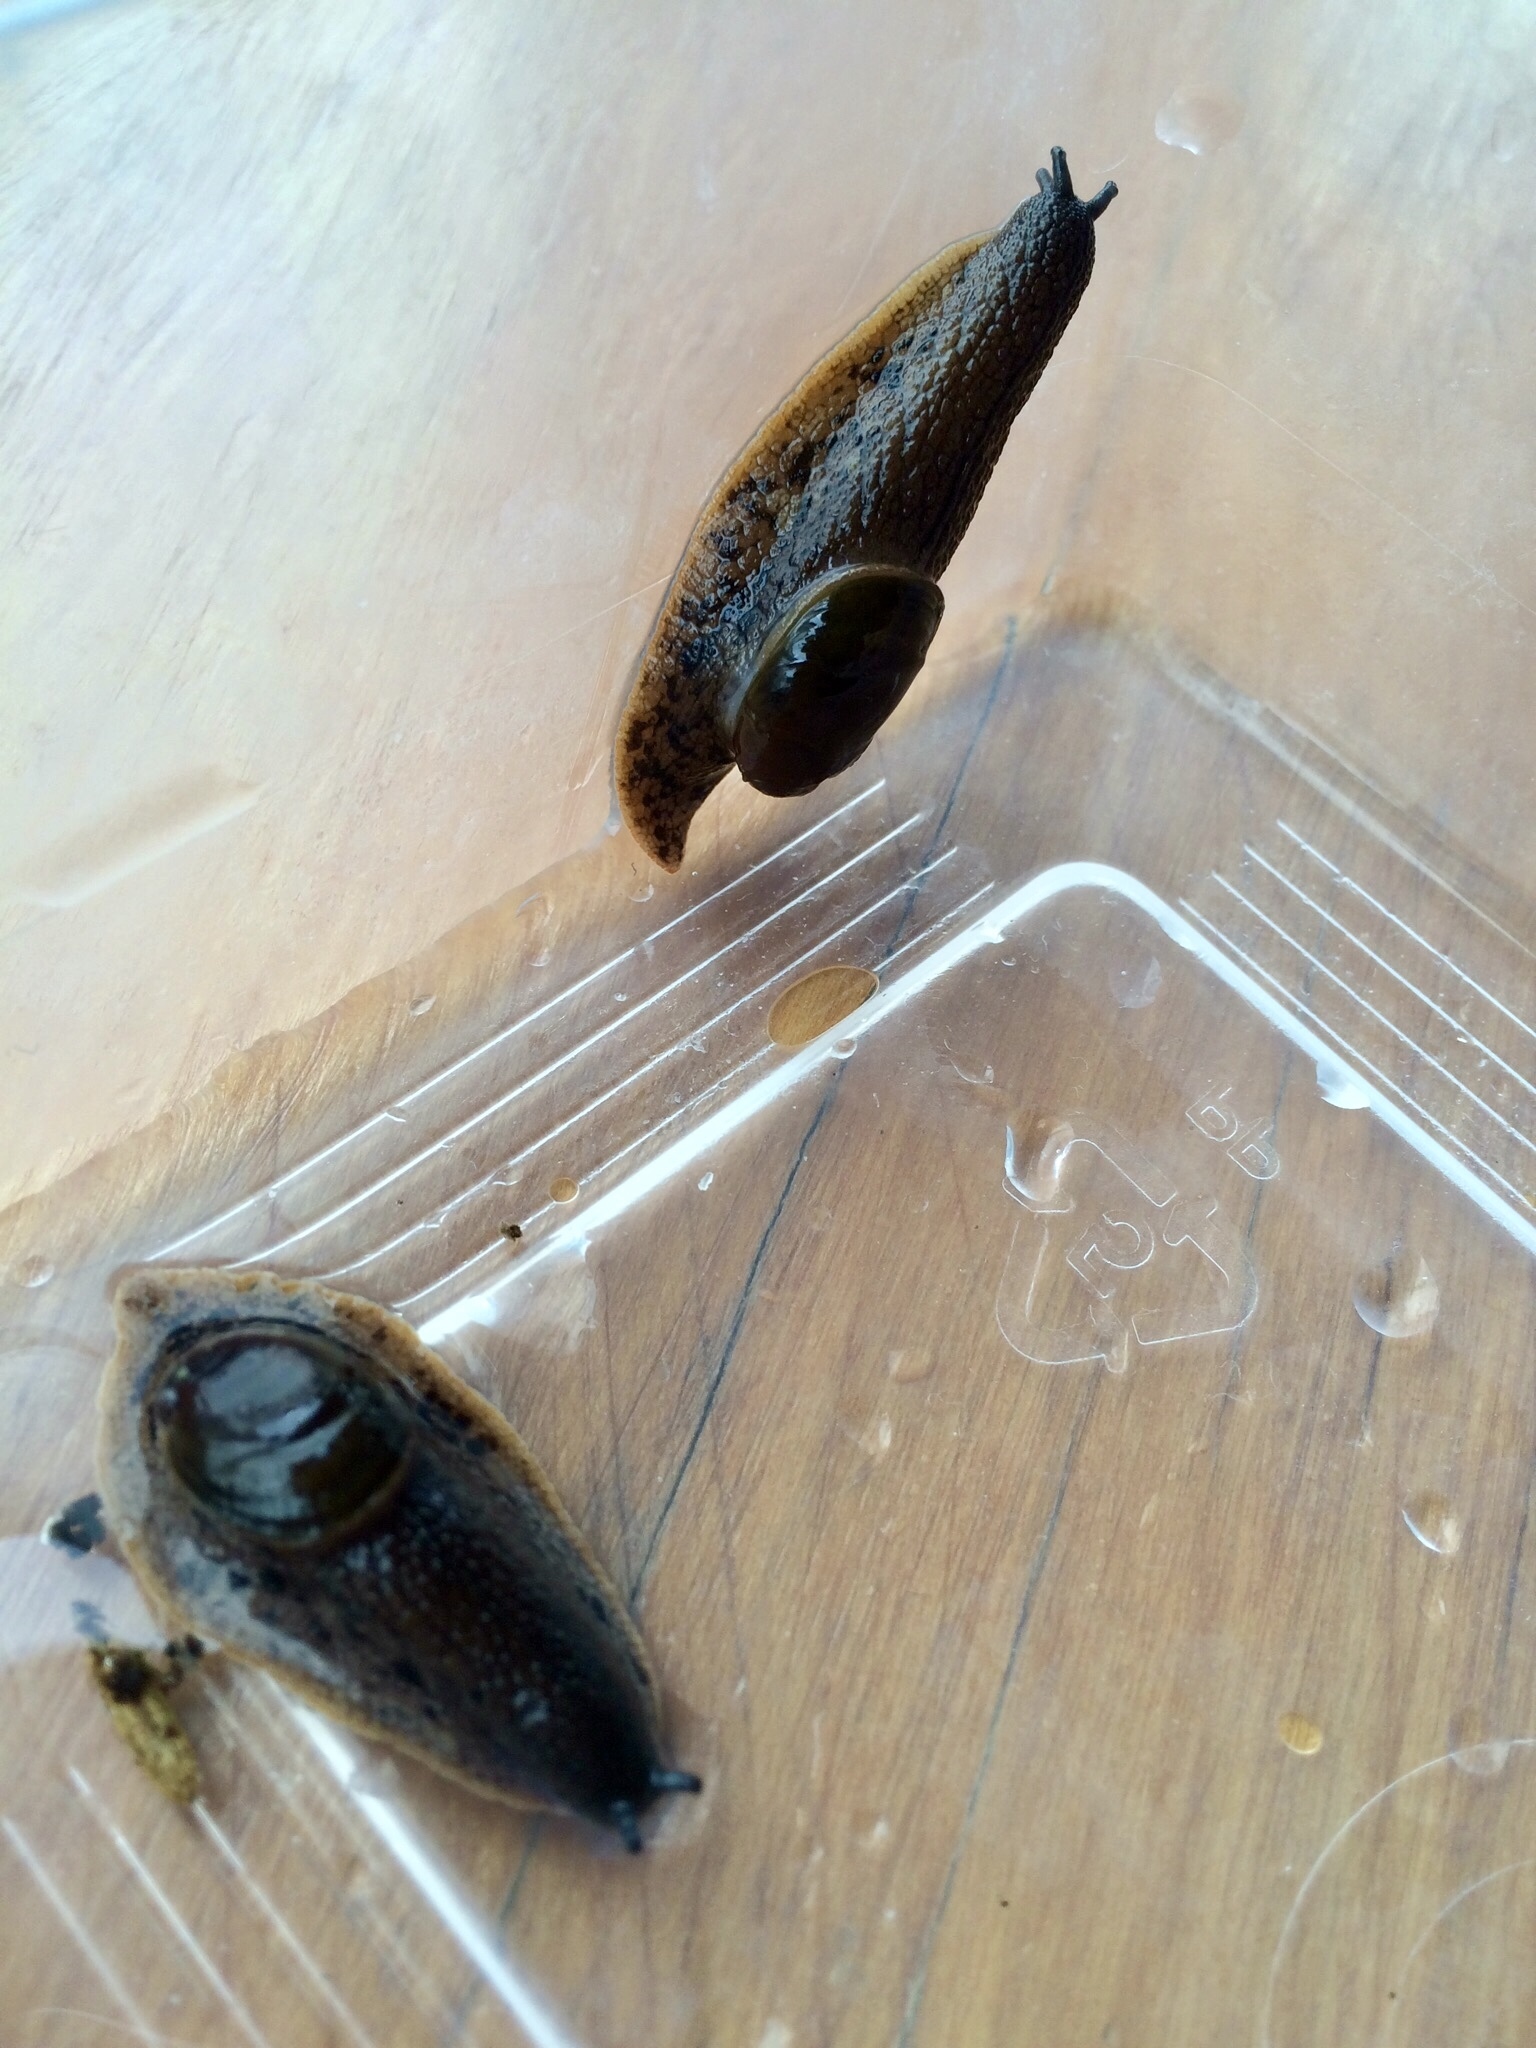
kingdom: Animalia
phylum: Mollusca
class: Gastropoda
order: Stylommatophora
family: Rhytididae
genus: Schizoglossa
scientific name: Schizoglossa novoseelandica
